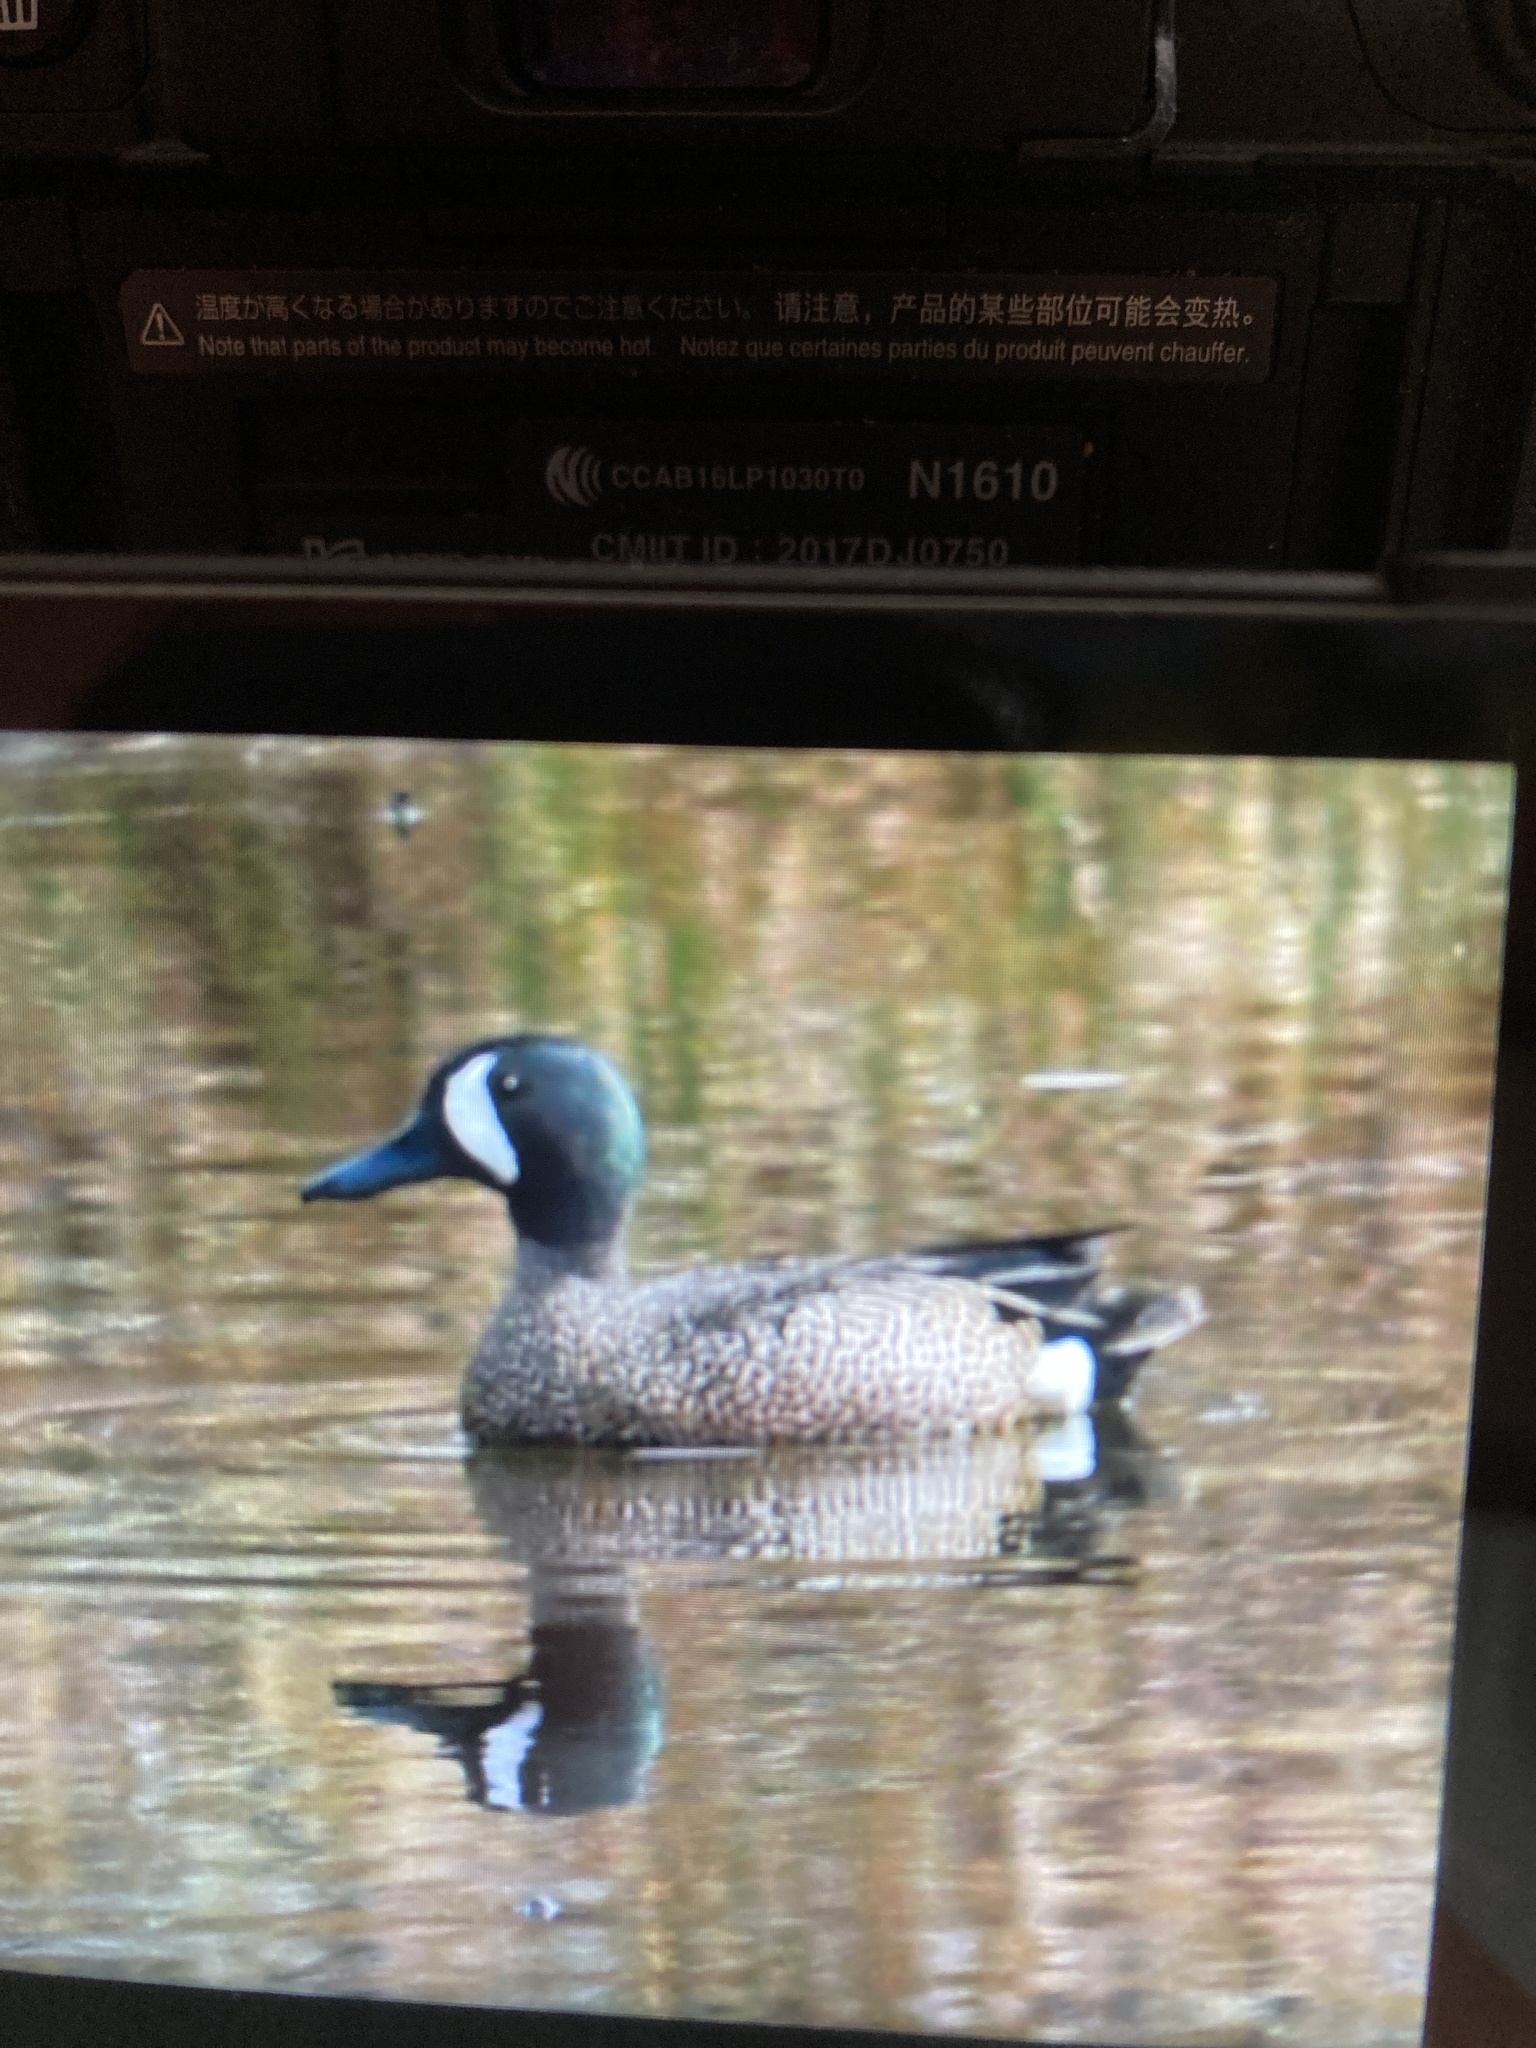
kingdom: Animalia
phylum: Chordata
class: Aves
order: Anseriformes
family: Anatidae
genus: Spatula
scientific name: Spatula discors
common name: Blue-winged teal
